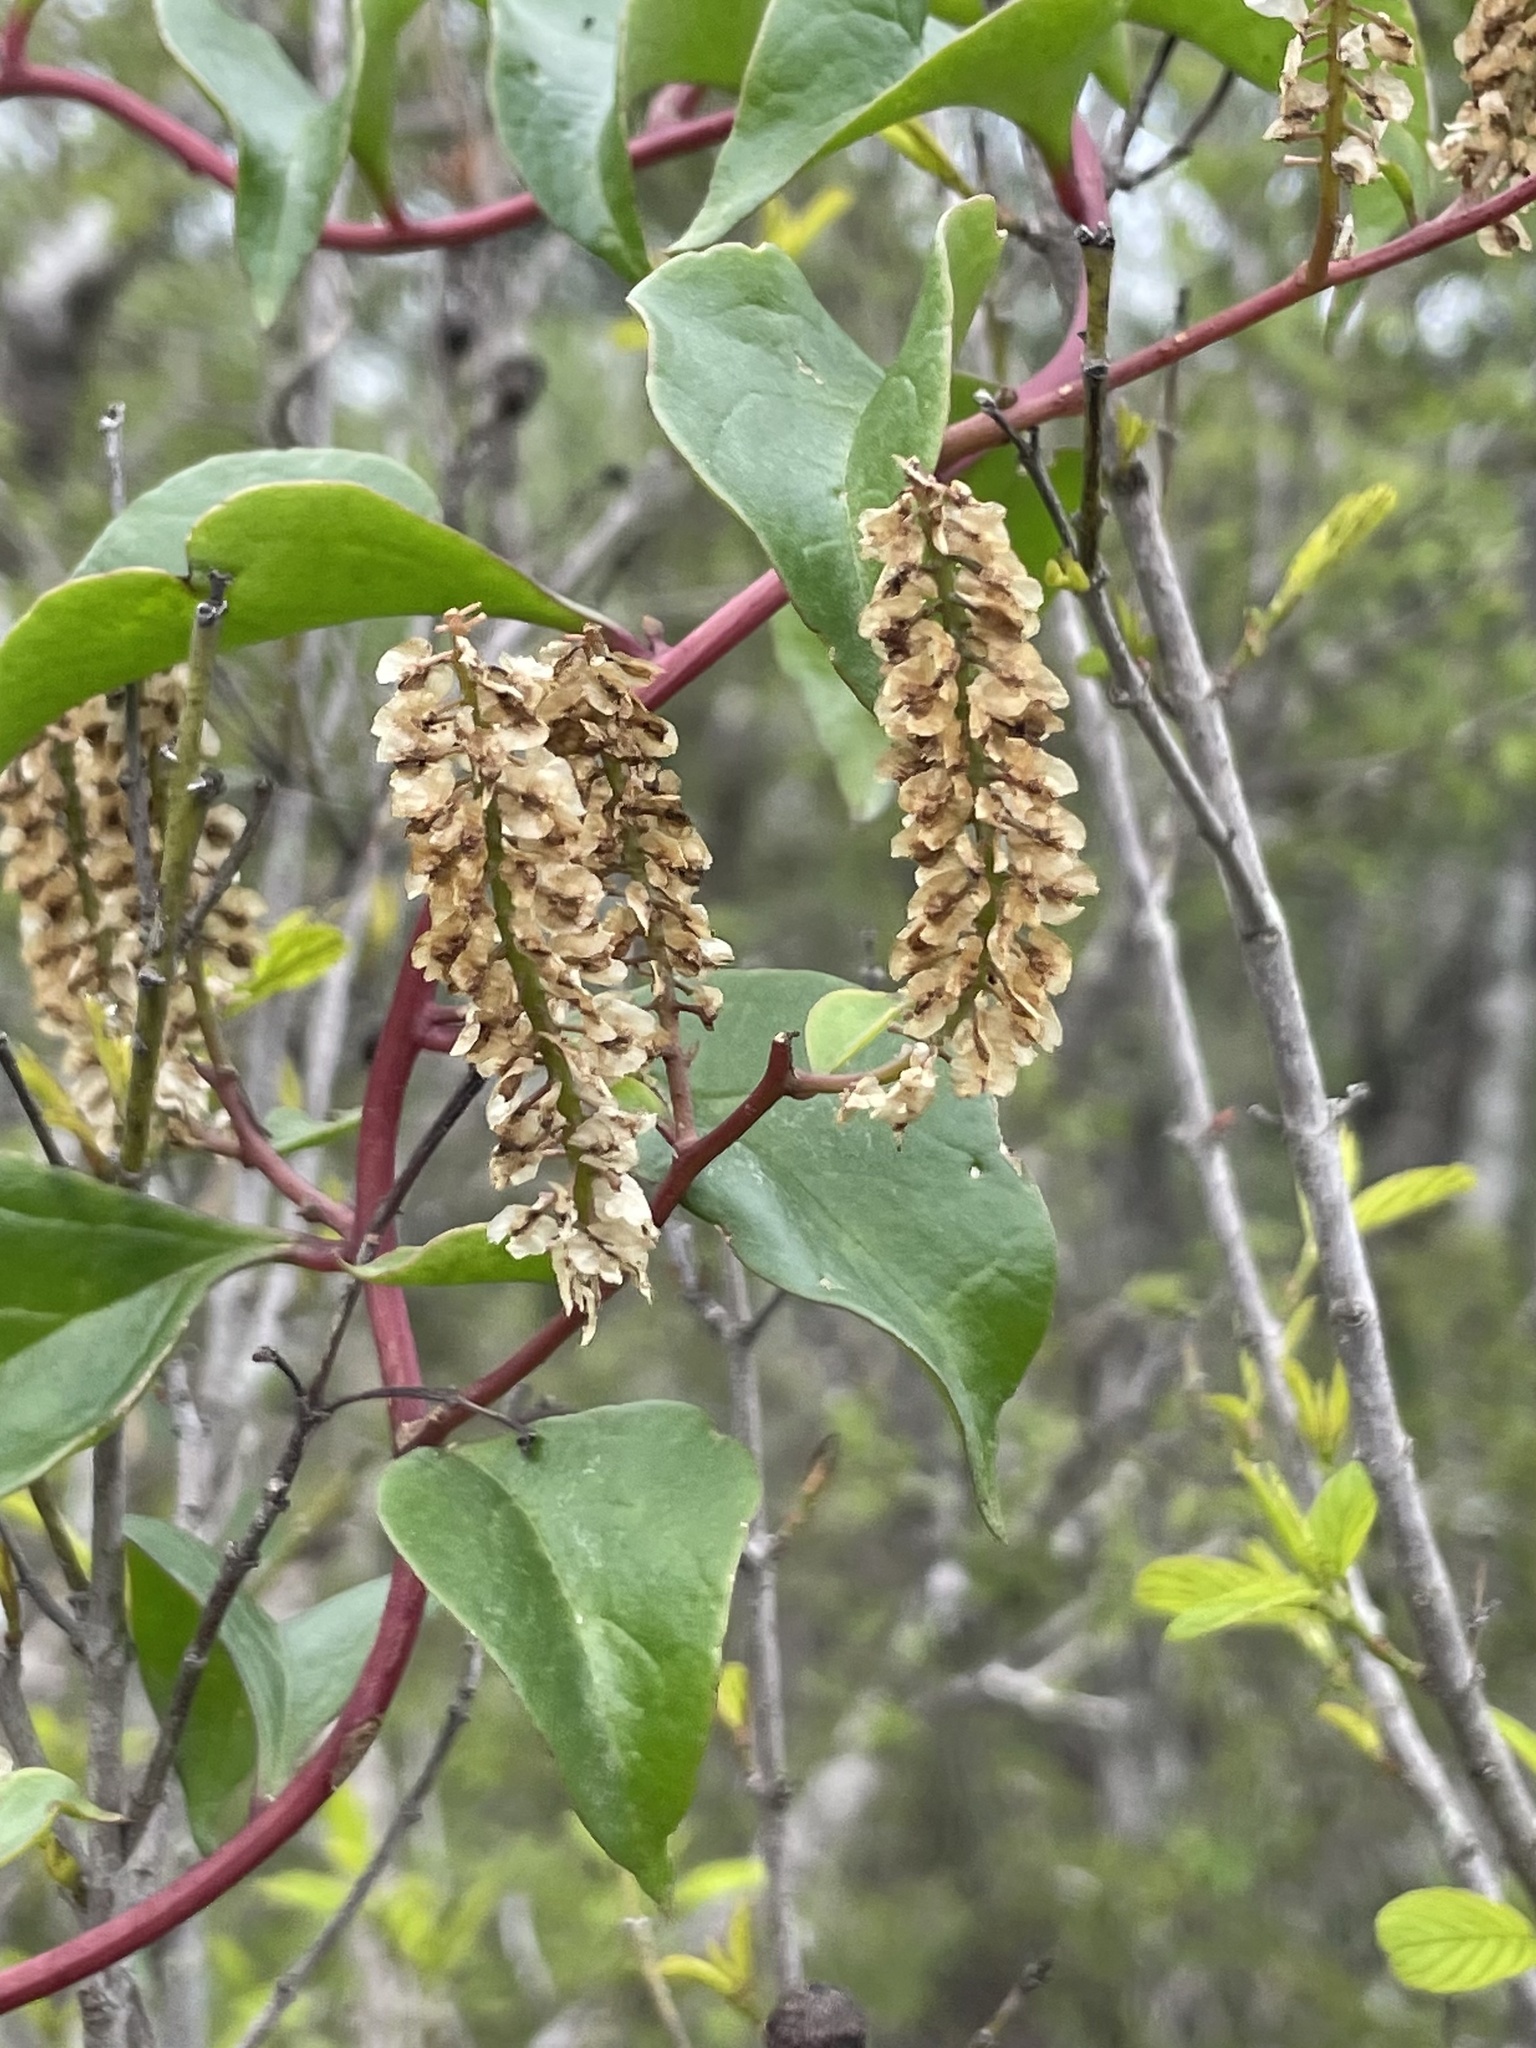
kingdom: Plantae
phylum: Tracheophyta
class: Magnoliopsida
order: Caryophyllales
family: Basellaceae
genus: Anredera
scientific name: Anredera vesicaria
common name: Sacasile
